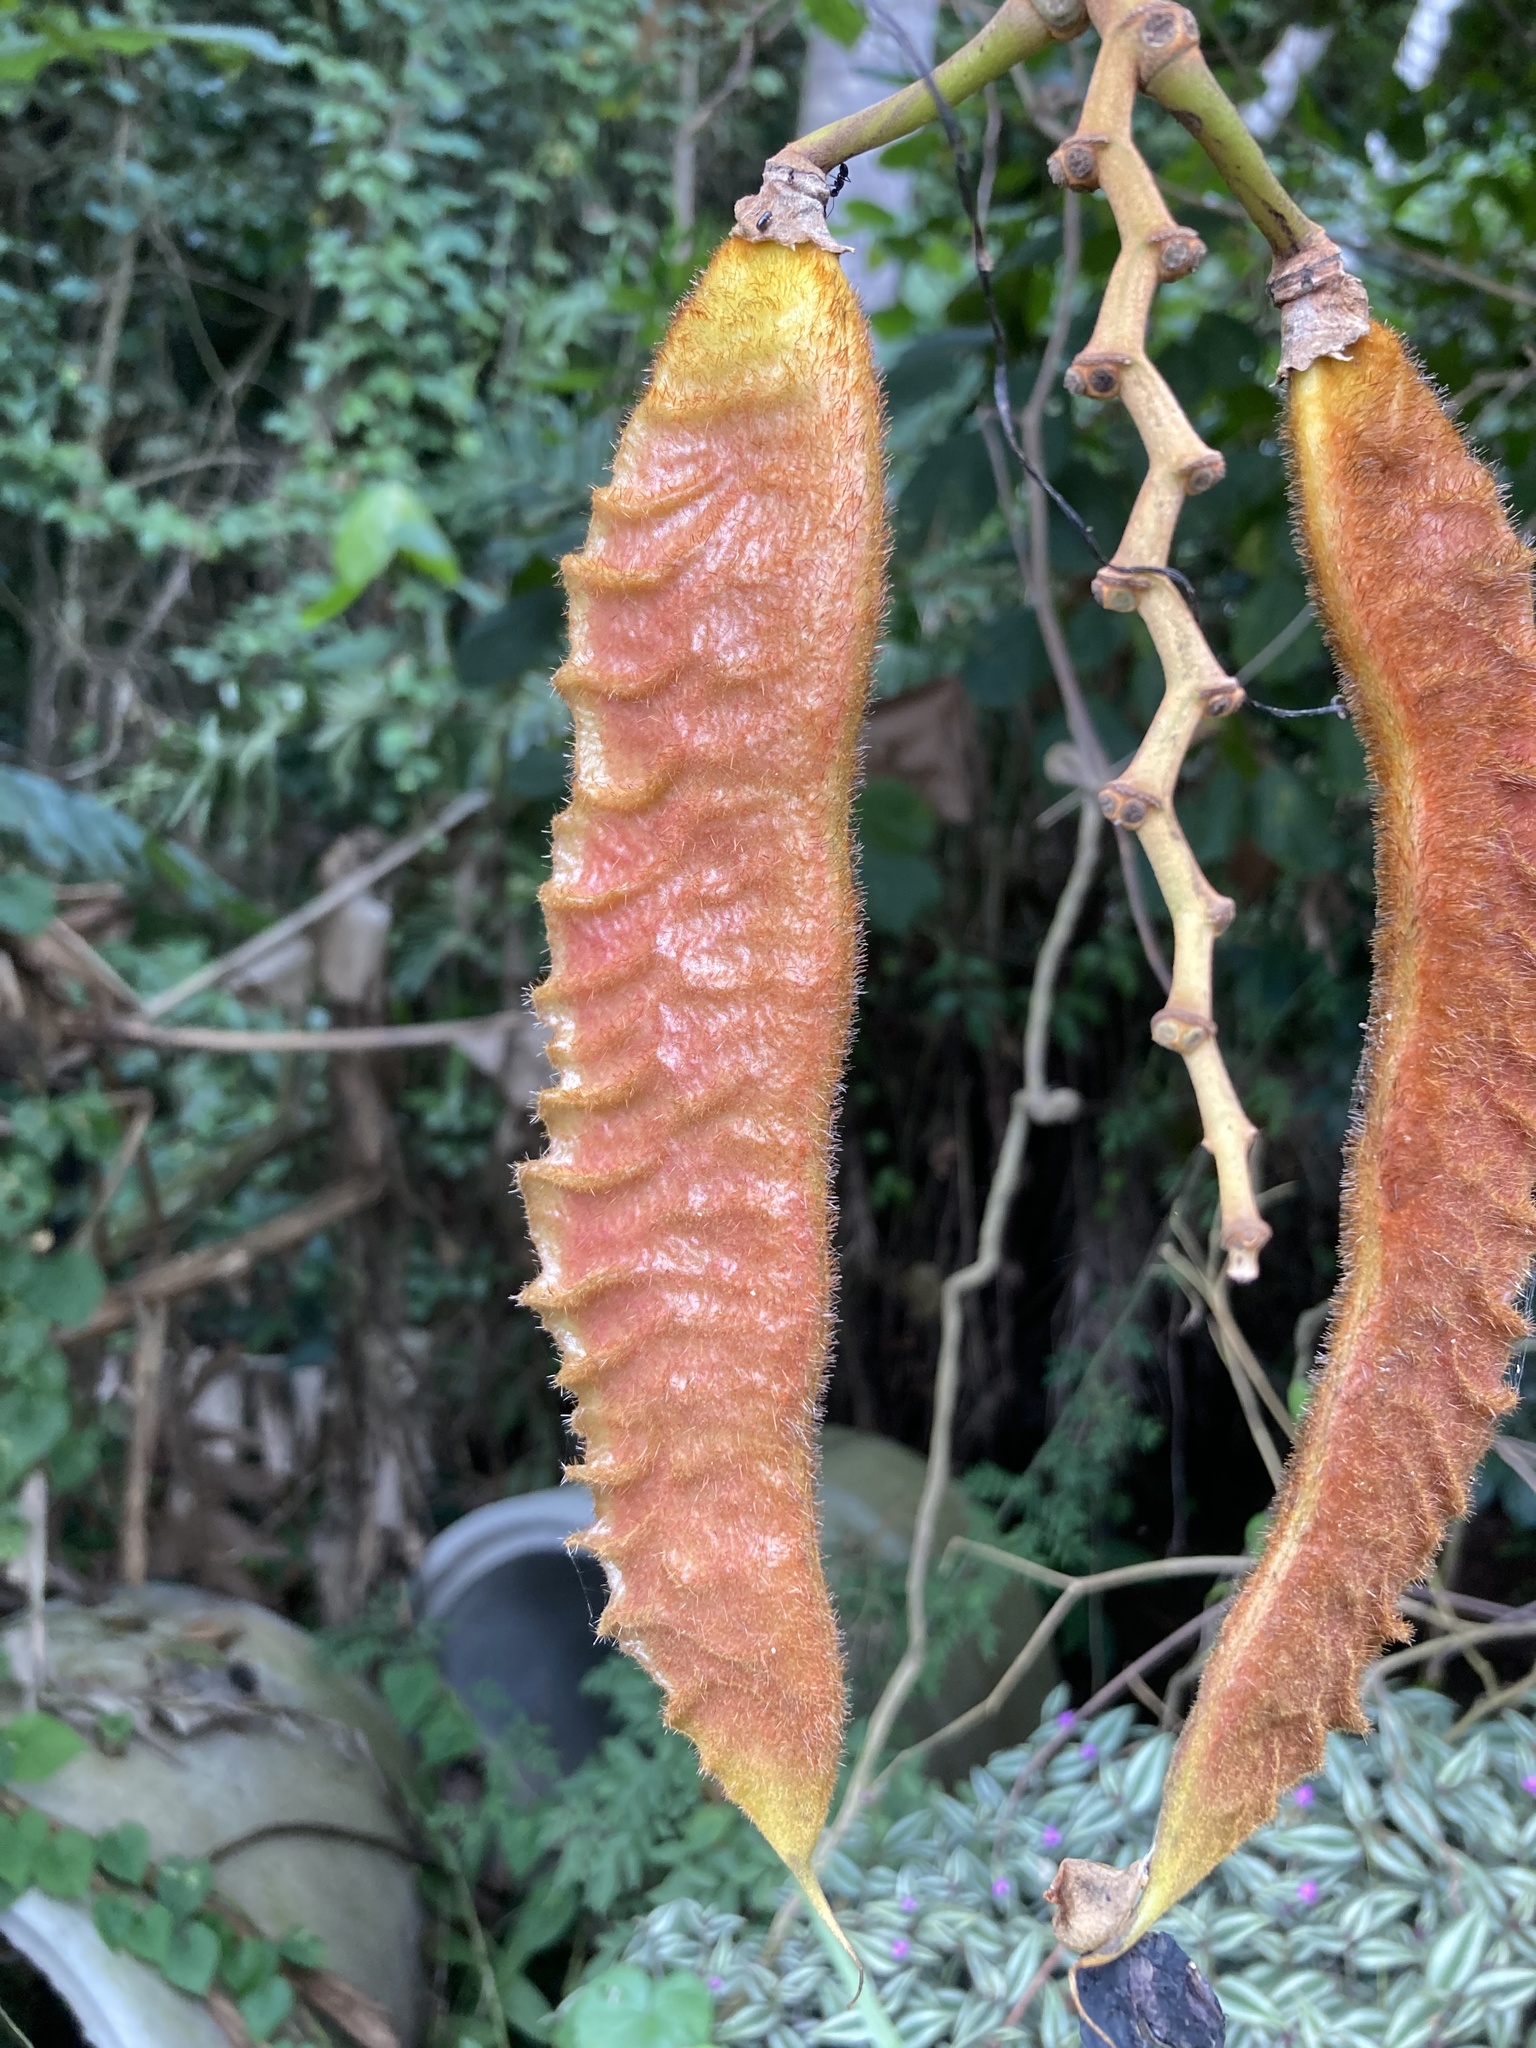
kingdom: Plantae
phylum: Tracheophyta
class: Magnoliopsida
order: Fabales
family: Fabaceae
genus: Mucuna
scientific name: Mucuna urens
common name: Red hamburger bean
